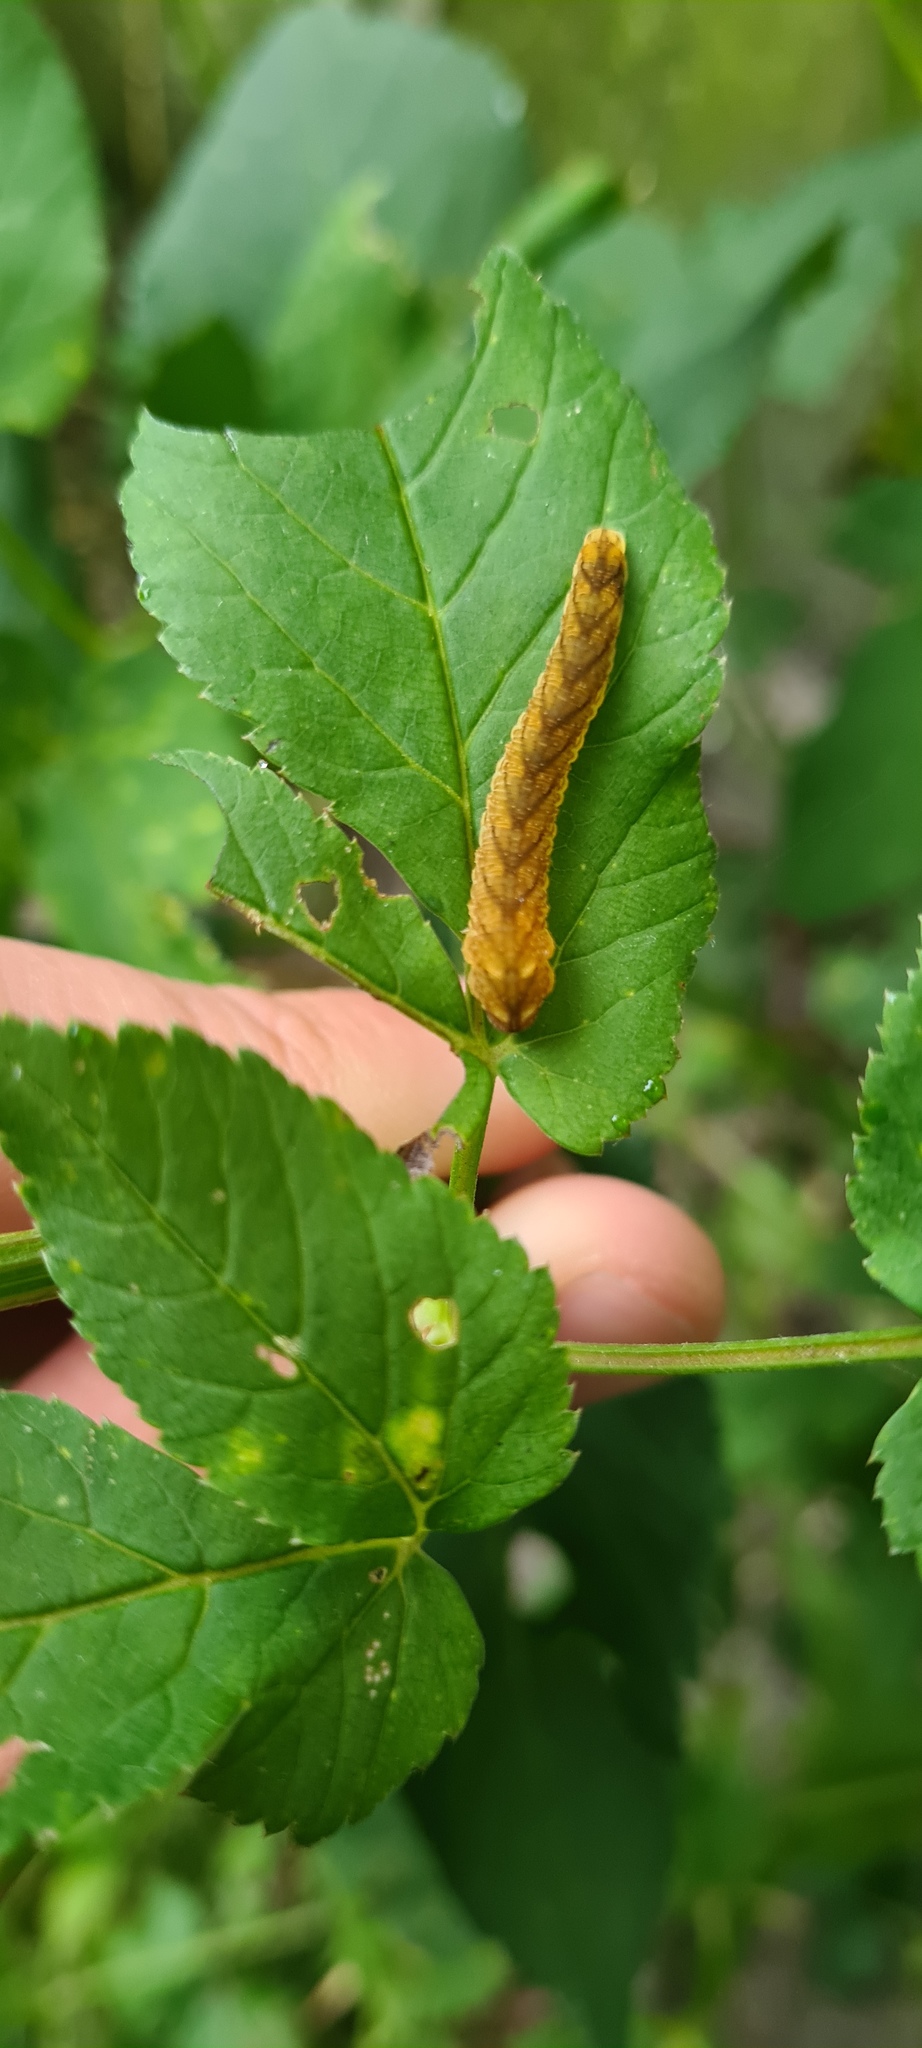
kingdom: Animalia
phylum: Arthropoda
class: Insecta
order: Hymenoptera
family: Tenthredinidae
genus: Tenthredo
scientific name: Tenthredo campestris
